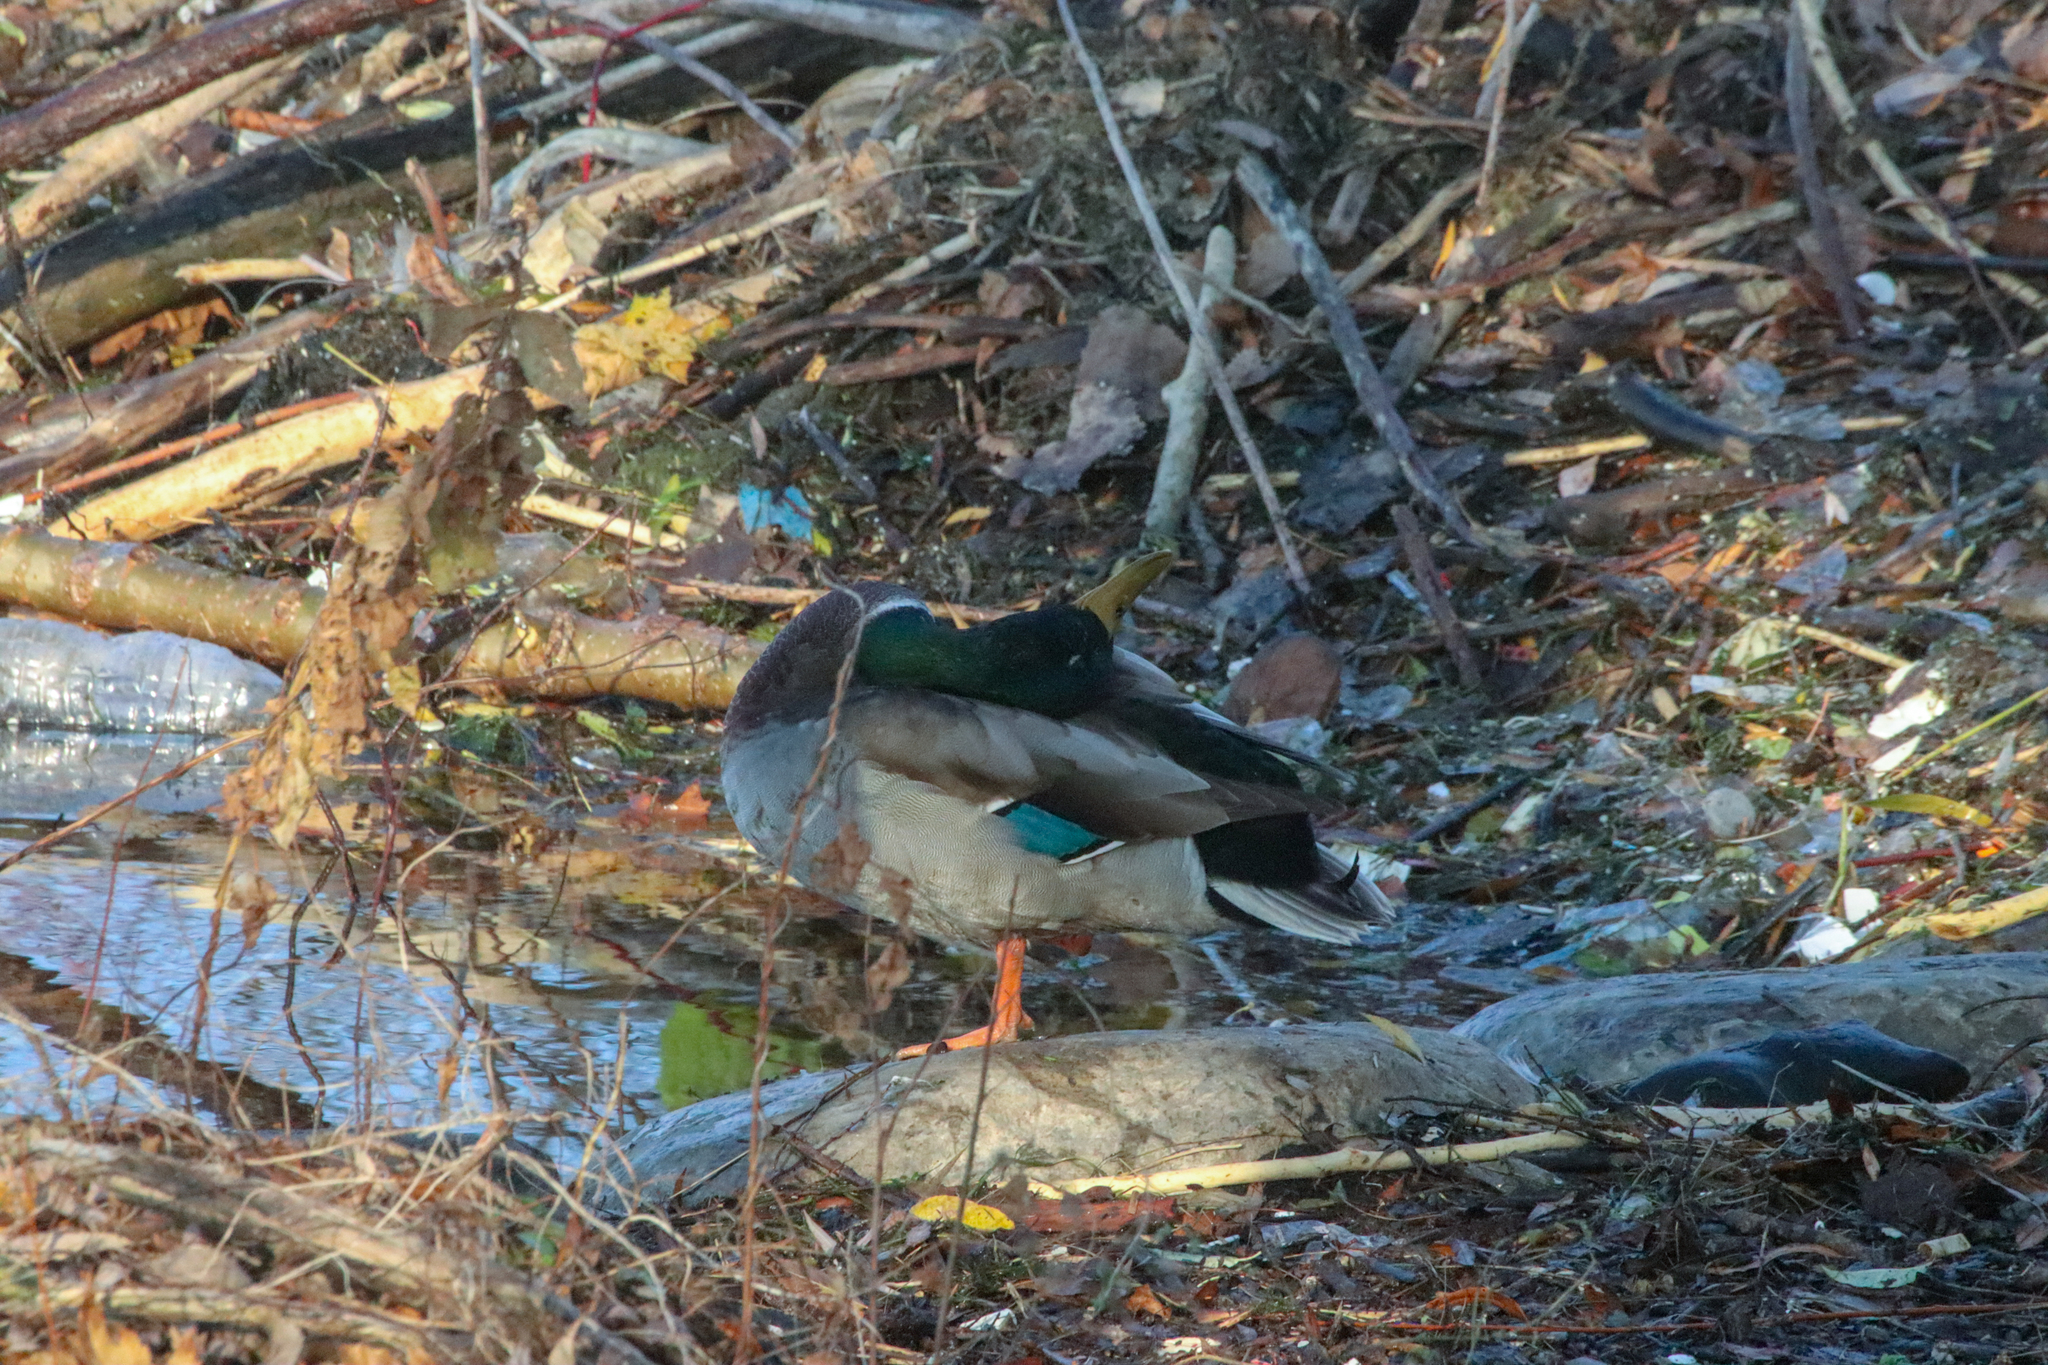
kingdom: Animalia
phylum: Chordata
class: Aves
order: Anseriformes
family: Anatidae
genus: Anas
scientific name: Anas platyrhynchos
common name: Mallard
